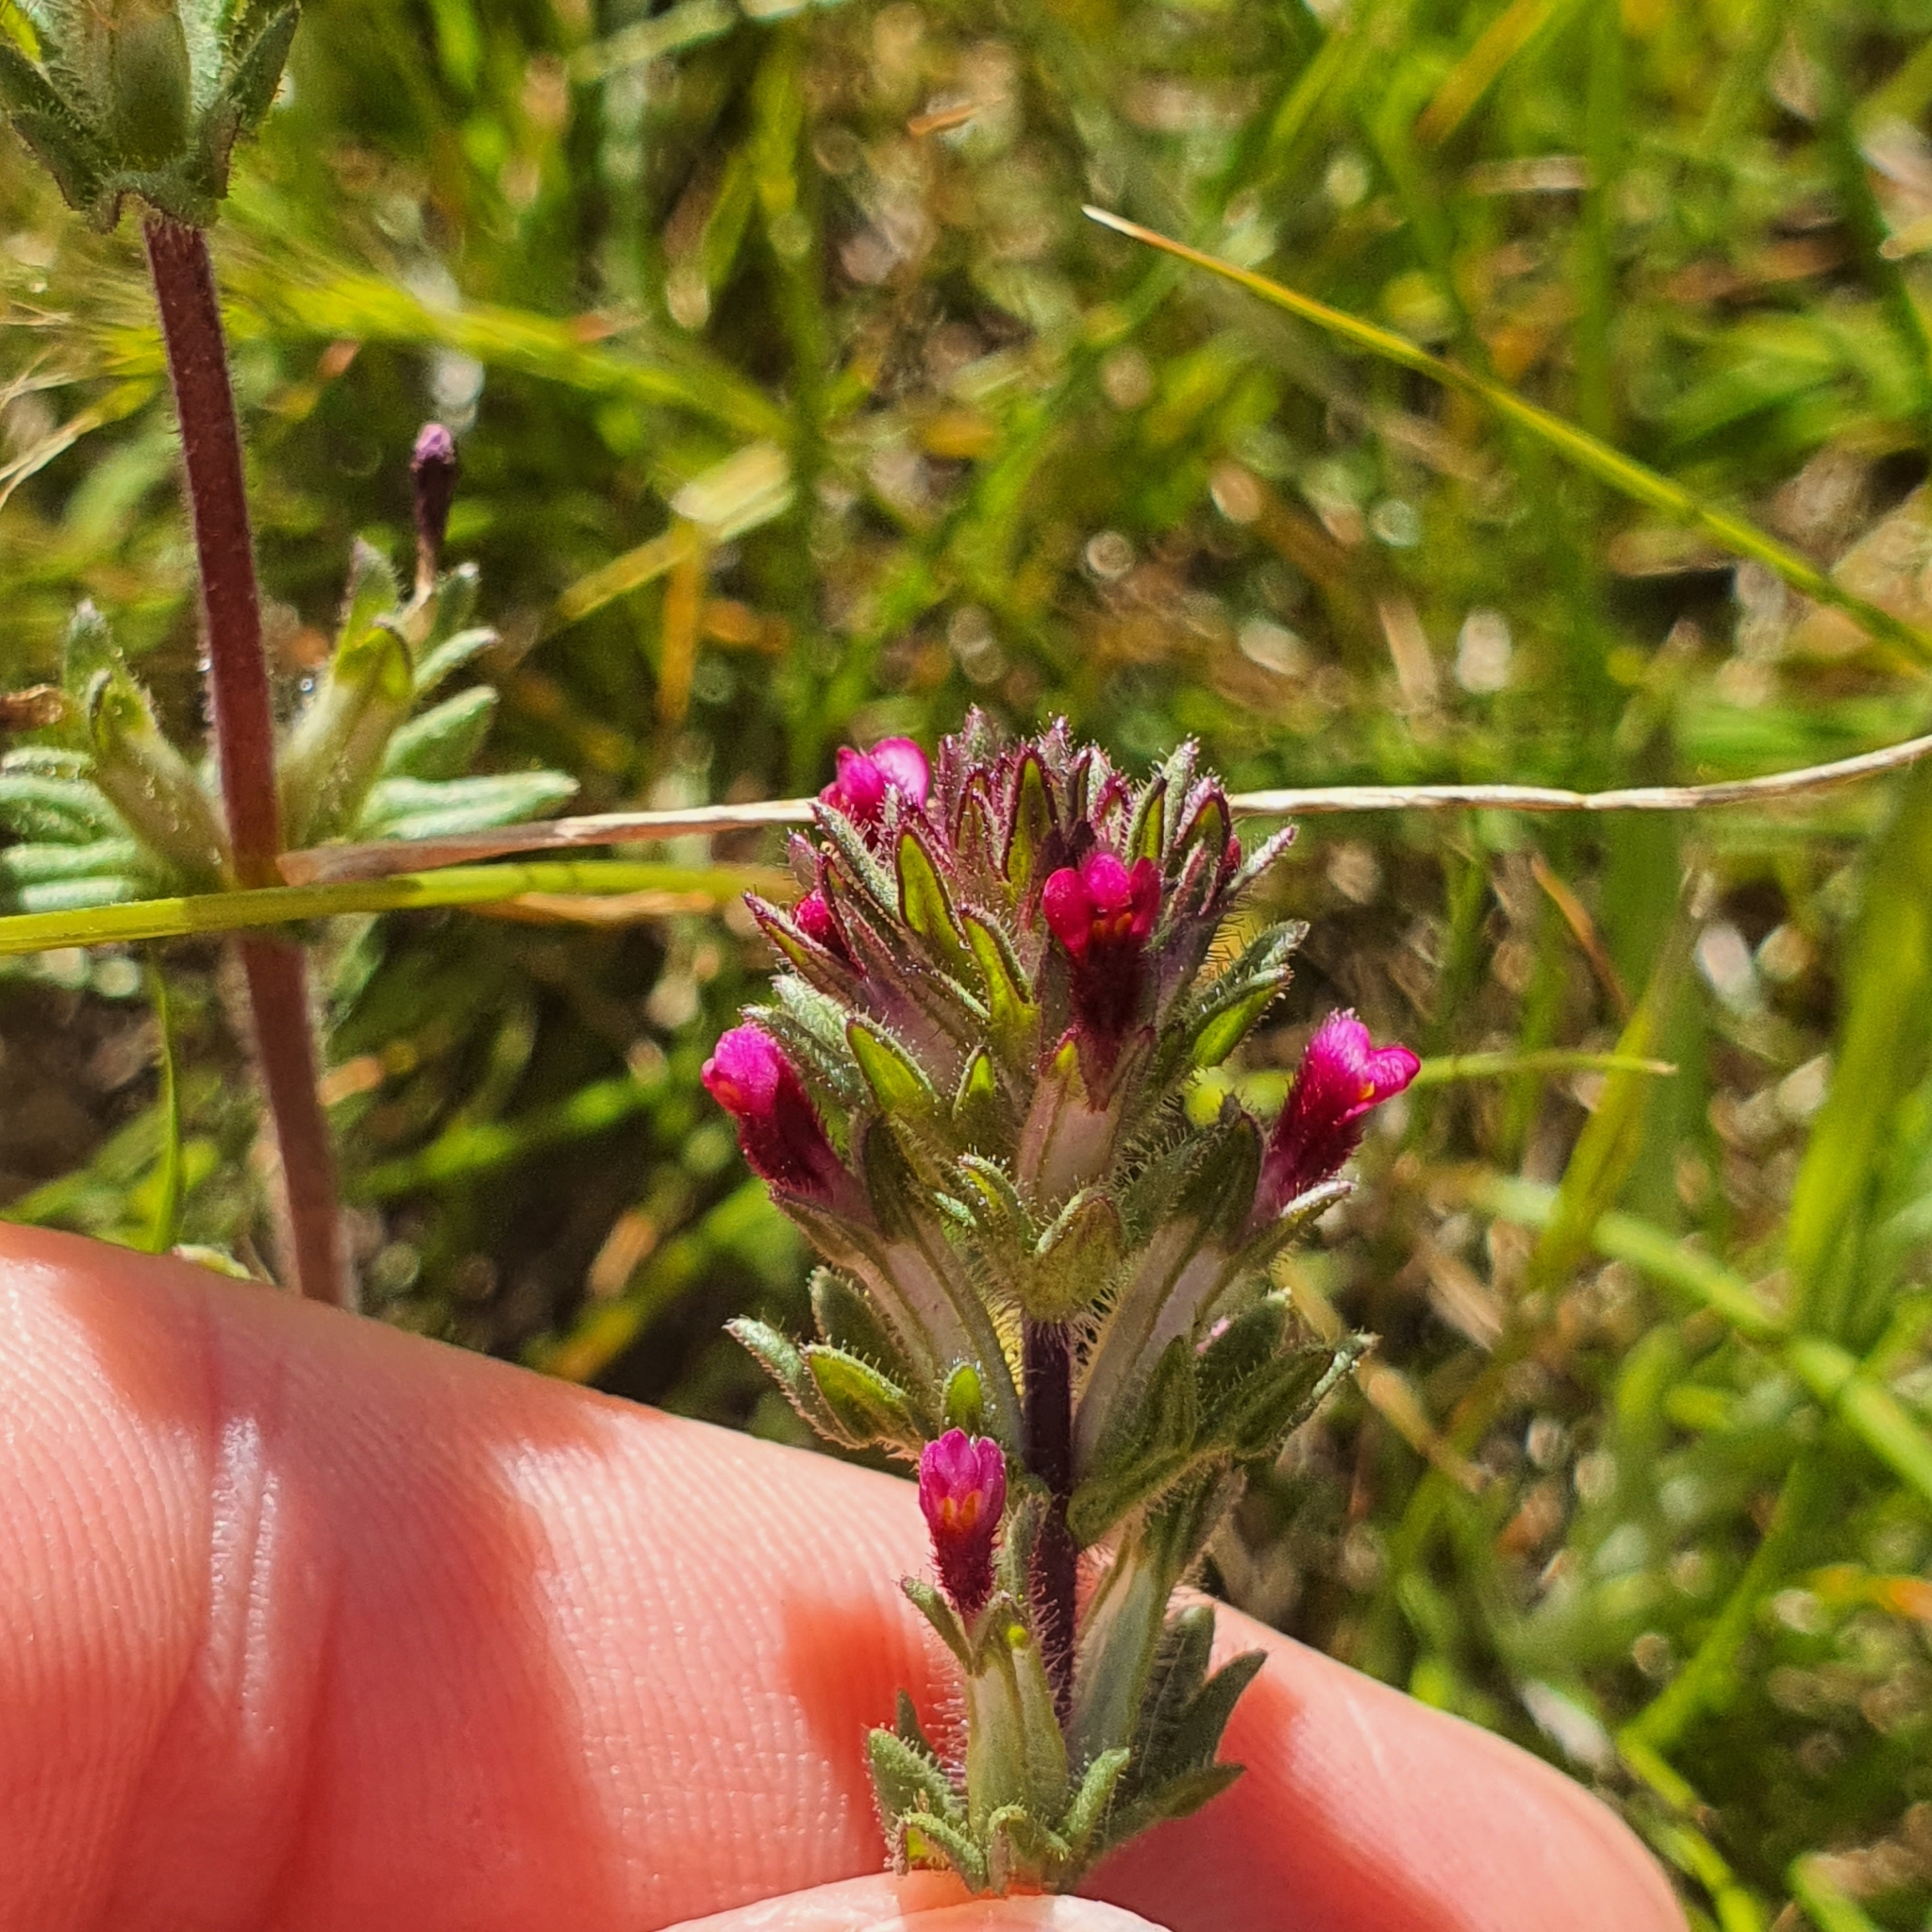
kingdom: Plantae
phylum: Tracheophyta
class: Magnoliopsida
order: Lamiales
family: Orobanchaceae
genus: Parentucellia
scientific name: Parentucellia latifolia
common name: Broadleaf glandweed
